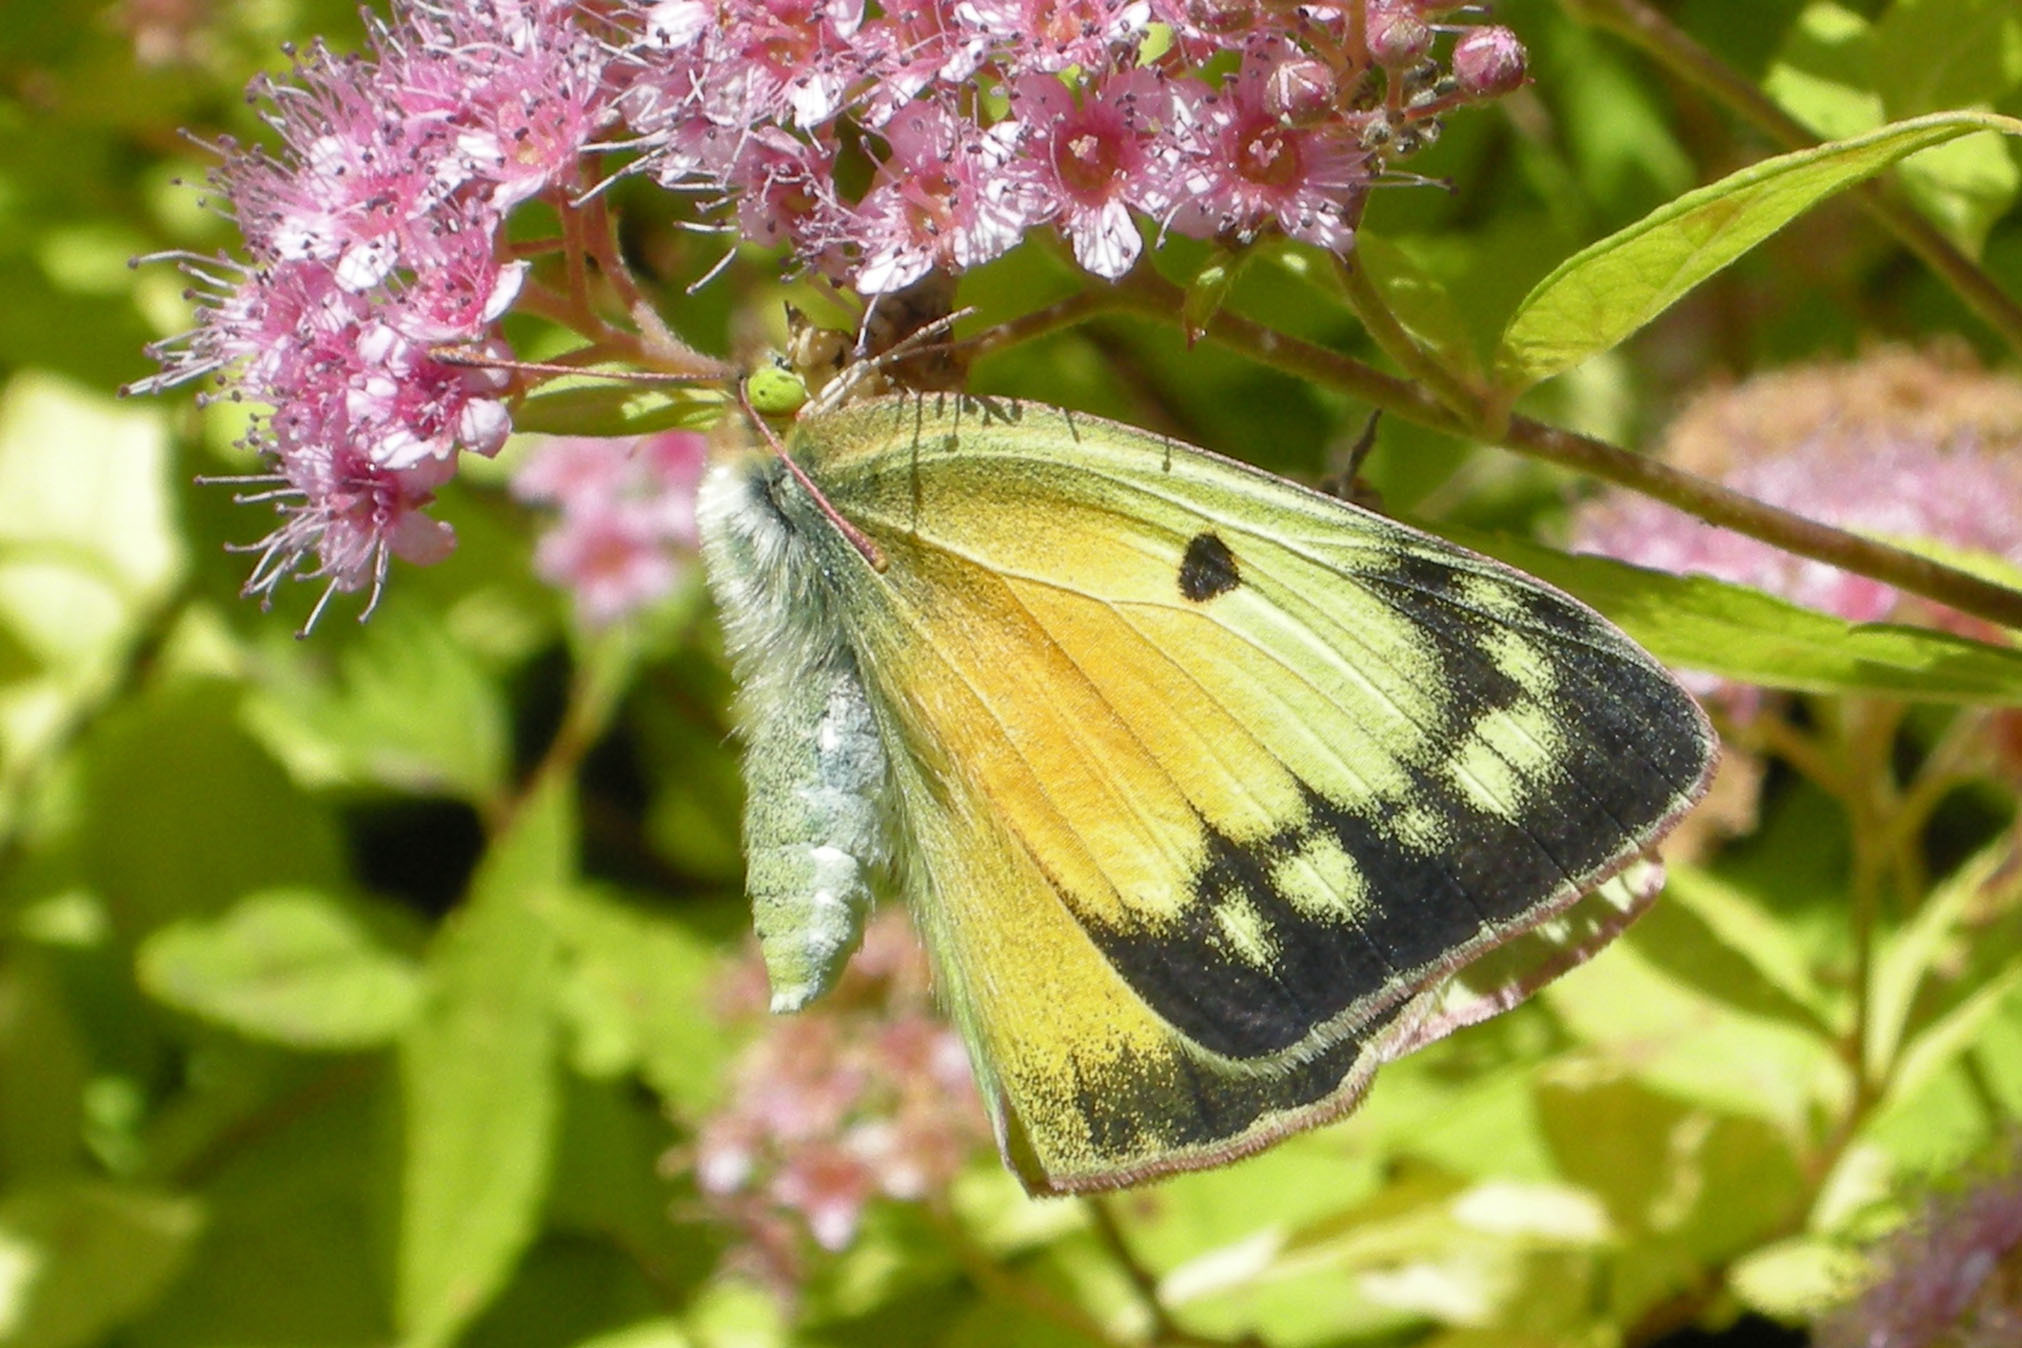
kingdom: Animalia
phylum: Arthropoda
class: Insecta
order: Lepidoptera
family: Pieridae
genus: Colias
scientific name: Colias eurytheme
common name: Alfalfa butterfly
